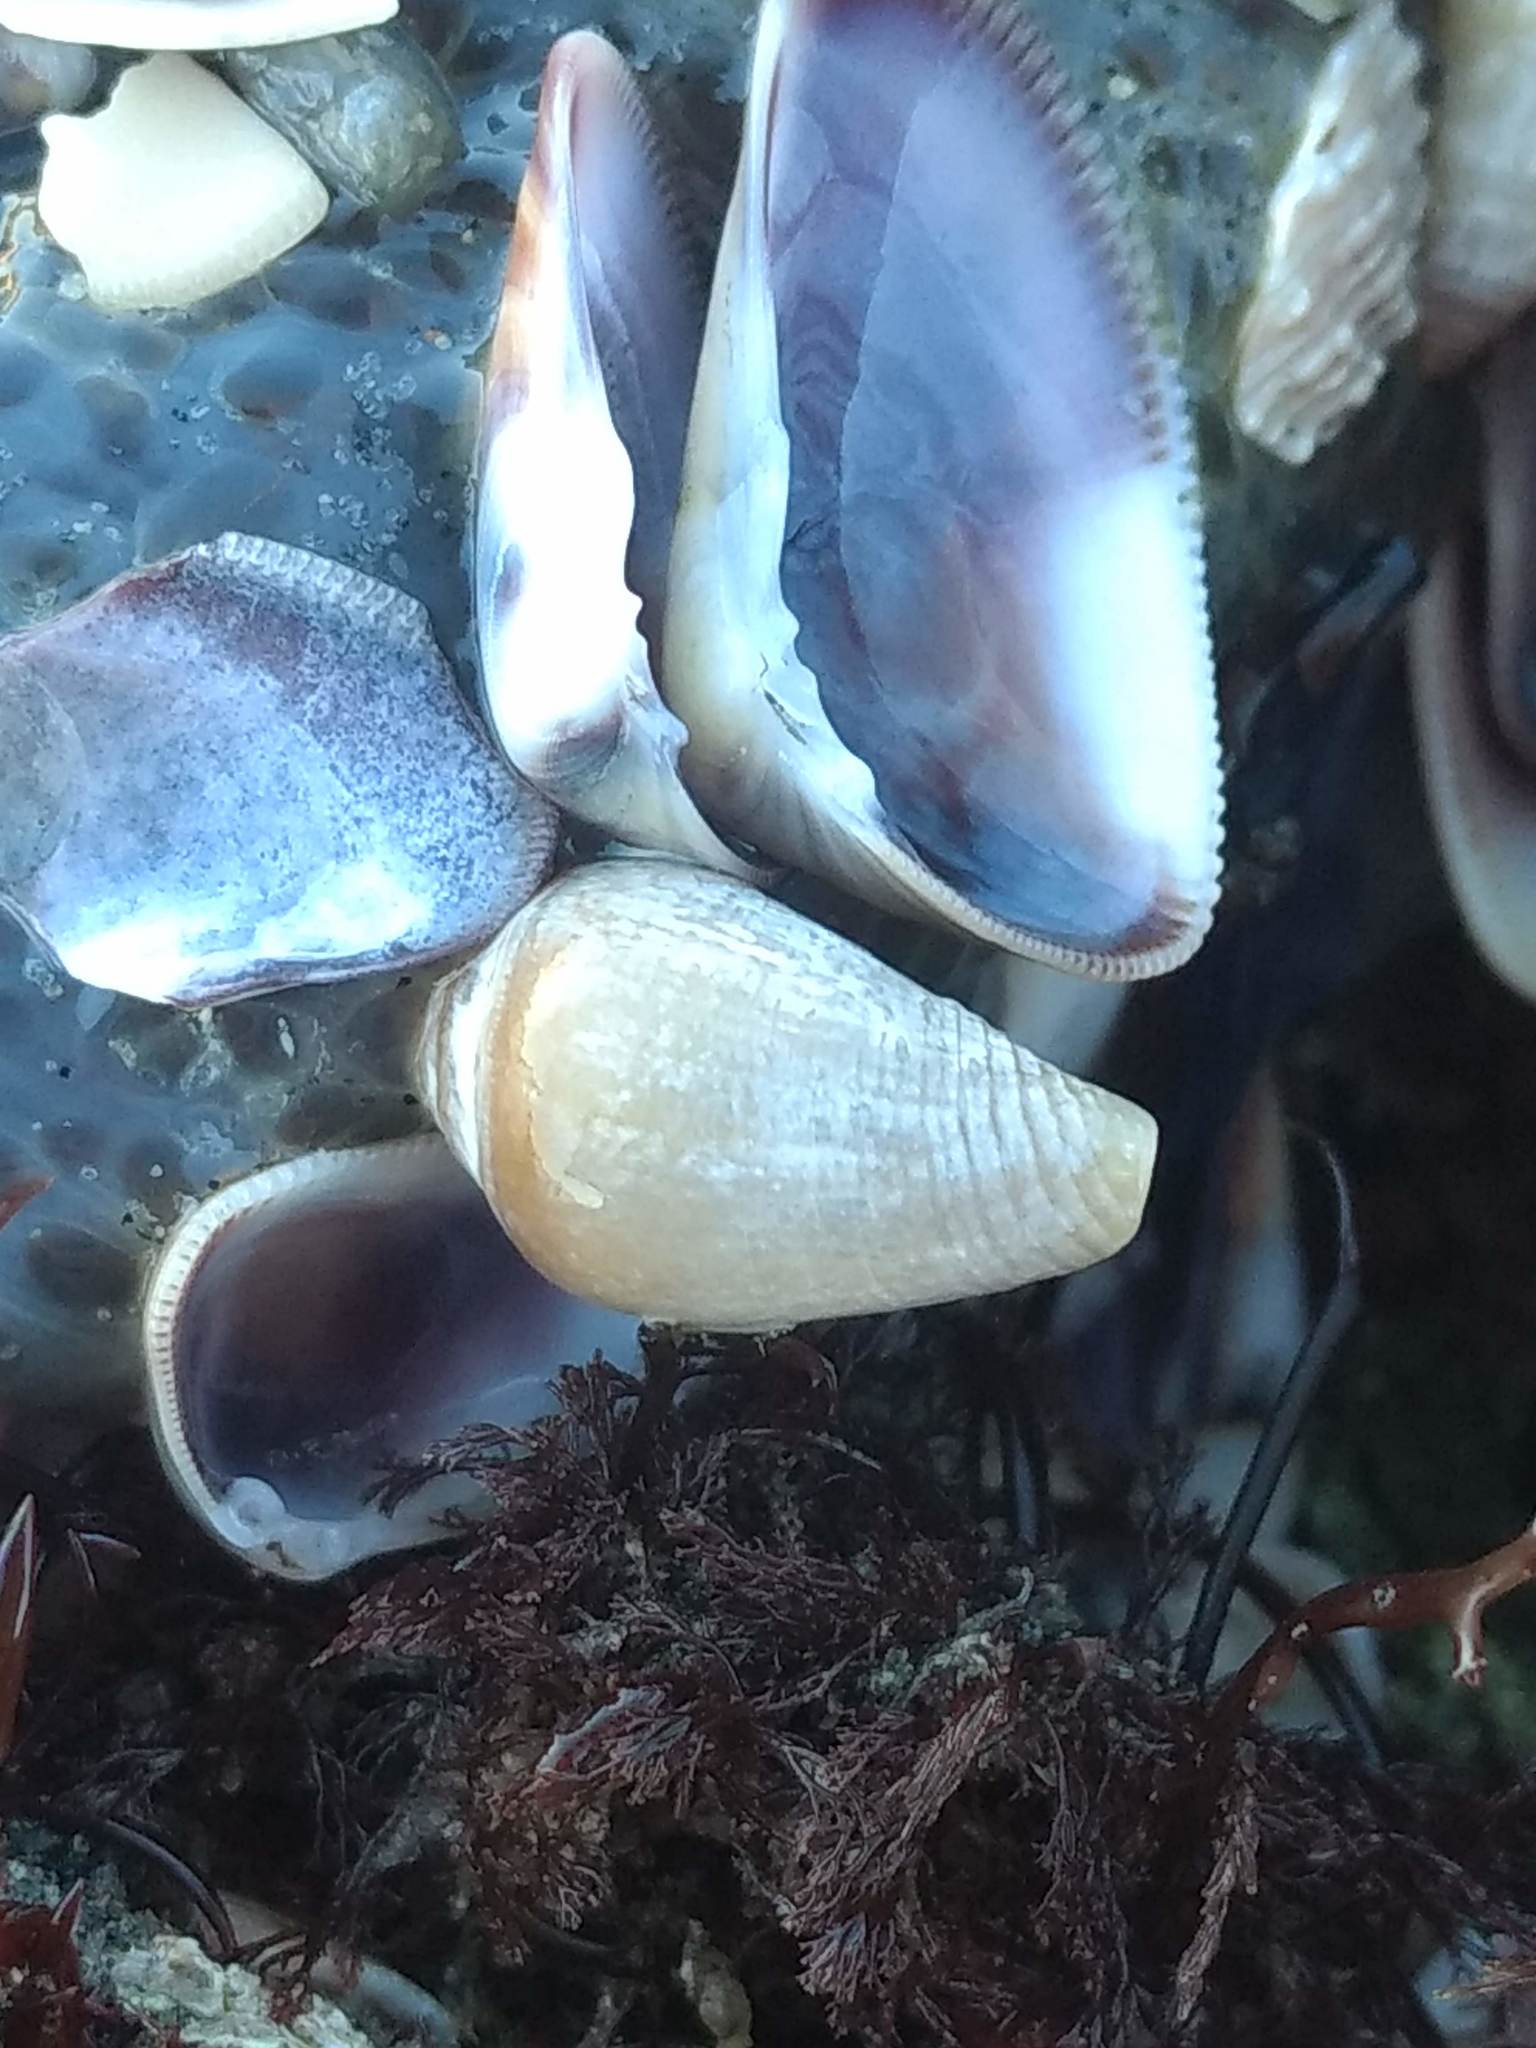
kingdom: Animalia
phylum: Mollusca
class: Gastropoda
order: Neogastropoda
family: Conidae
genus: Californiconus
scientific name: Californiconus californicus
